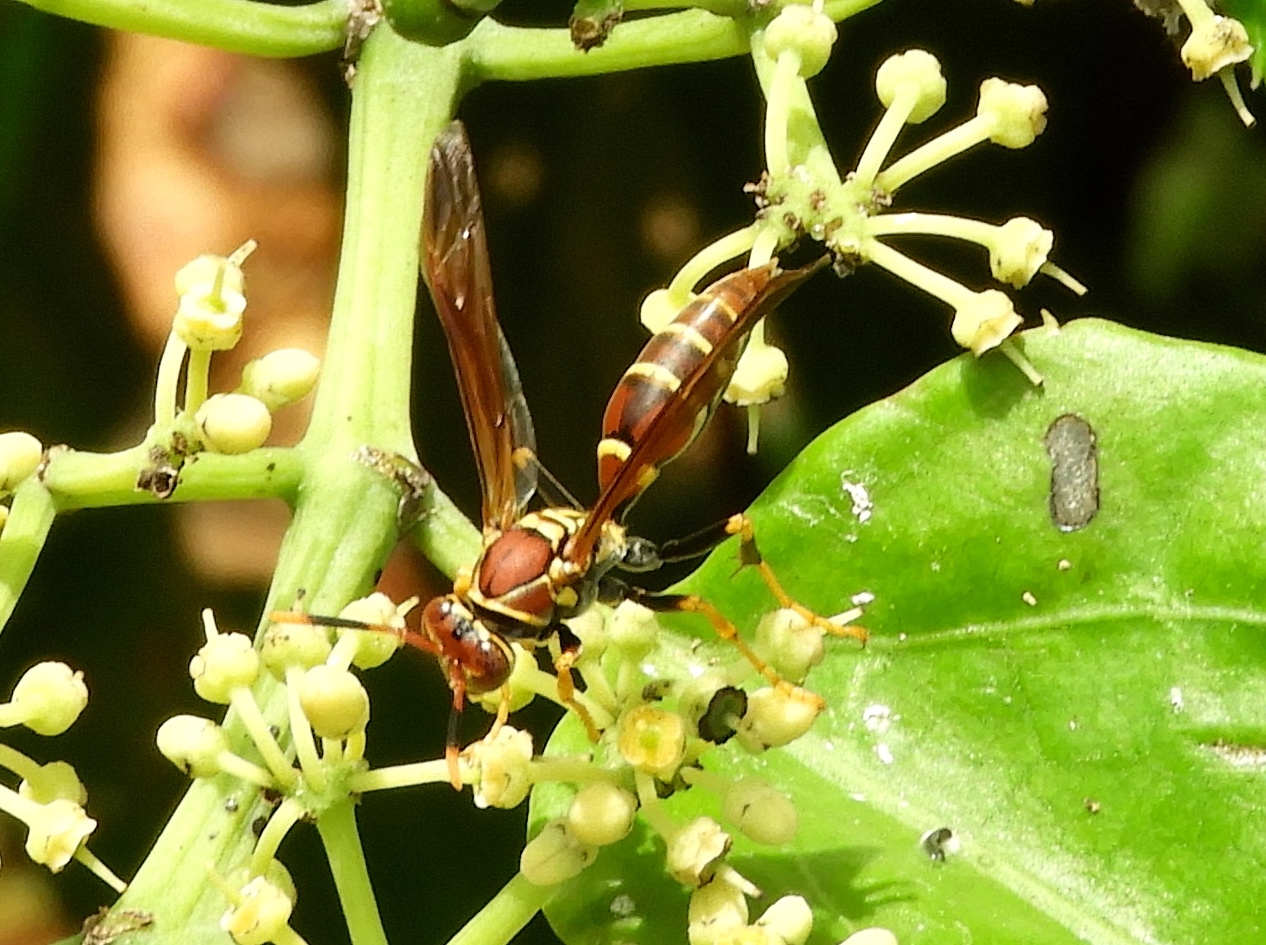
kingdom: Animalia
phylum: Arthropoda
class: Insecta
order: Hymenoptera
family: Eumenidae
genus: Polistes
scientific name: Polistes instabilis
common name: Unstable paper wasp
